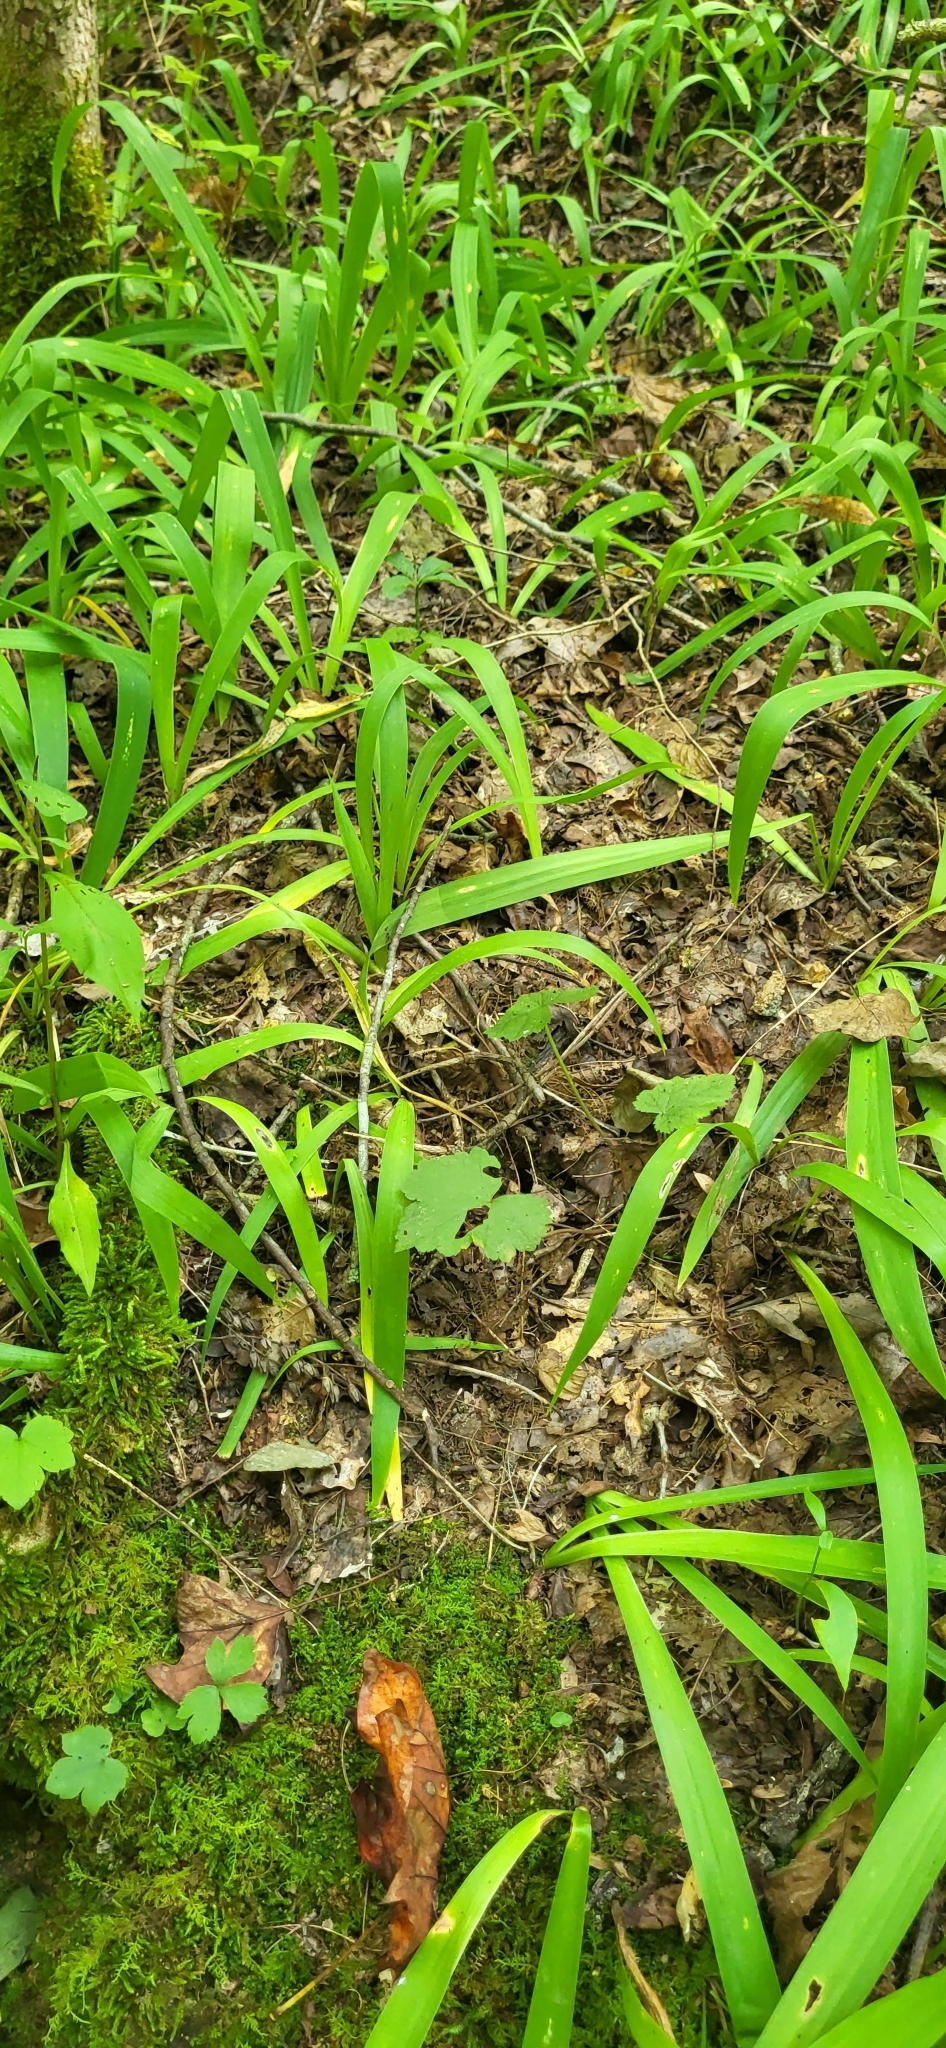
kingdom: Plantae
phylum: Tracheophyta
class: Liliopsida
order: Asparagales
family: Iridaceae
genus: Iris
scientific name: Iris cristata
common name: Crested iris
